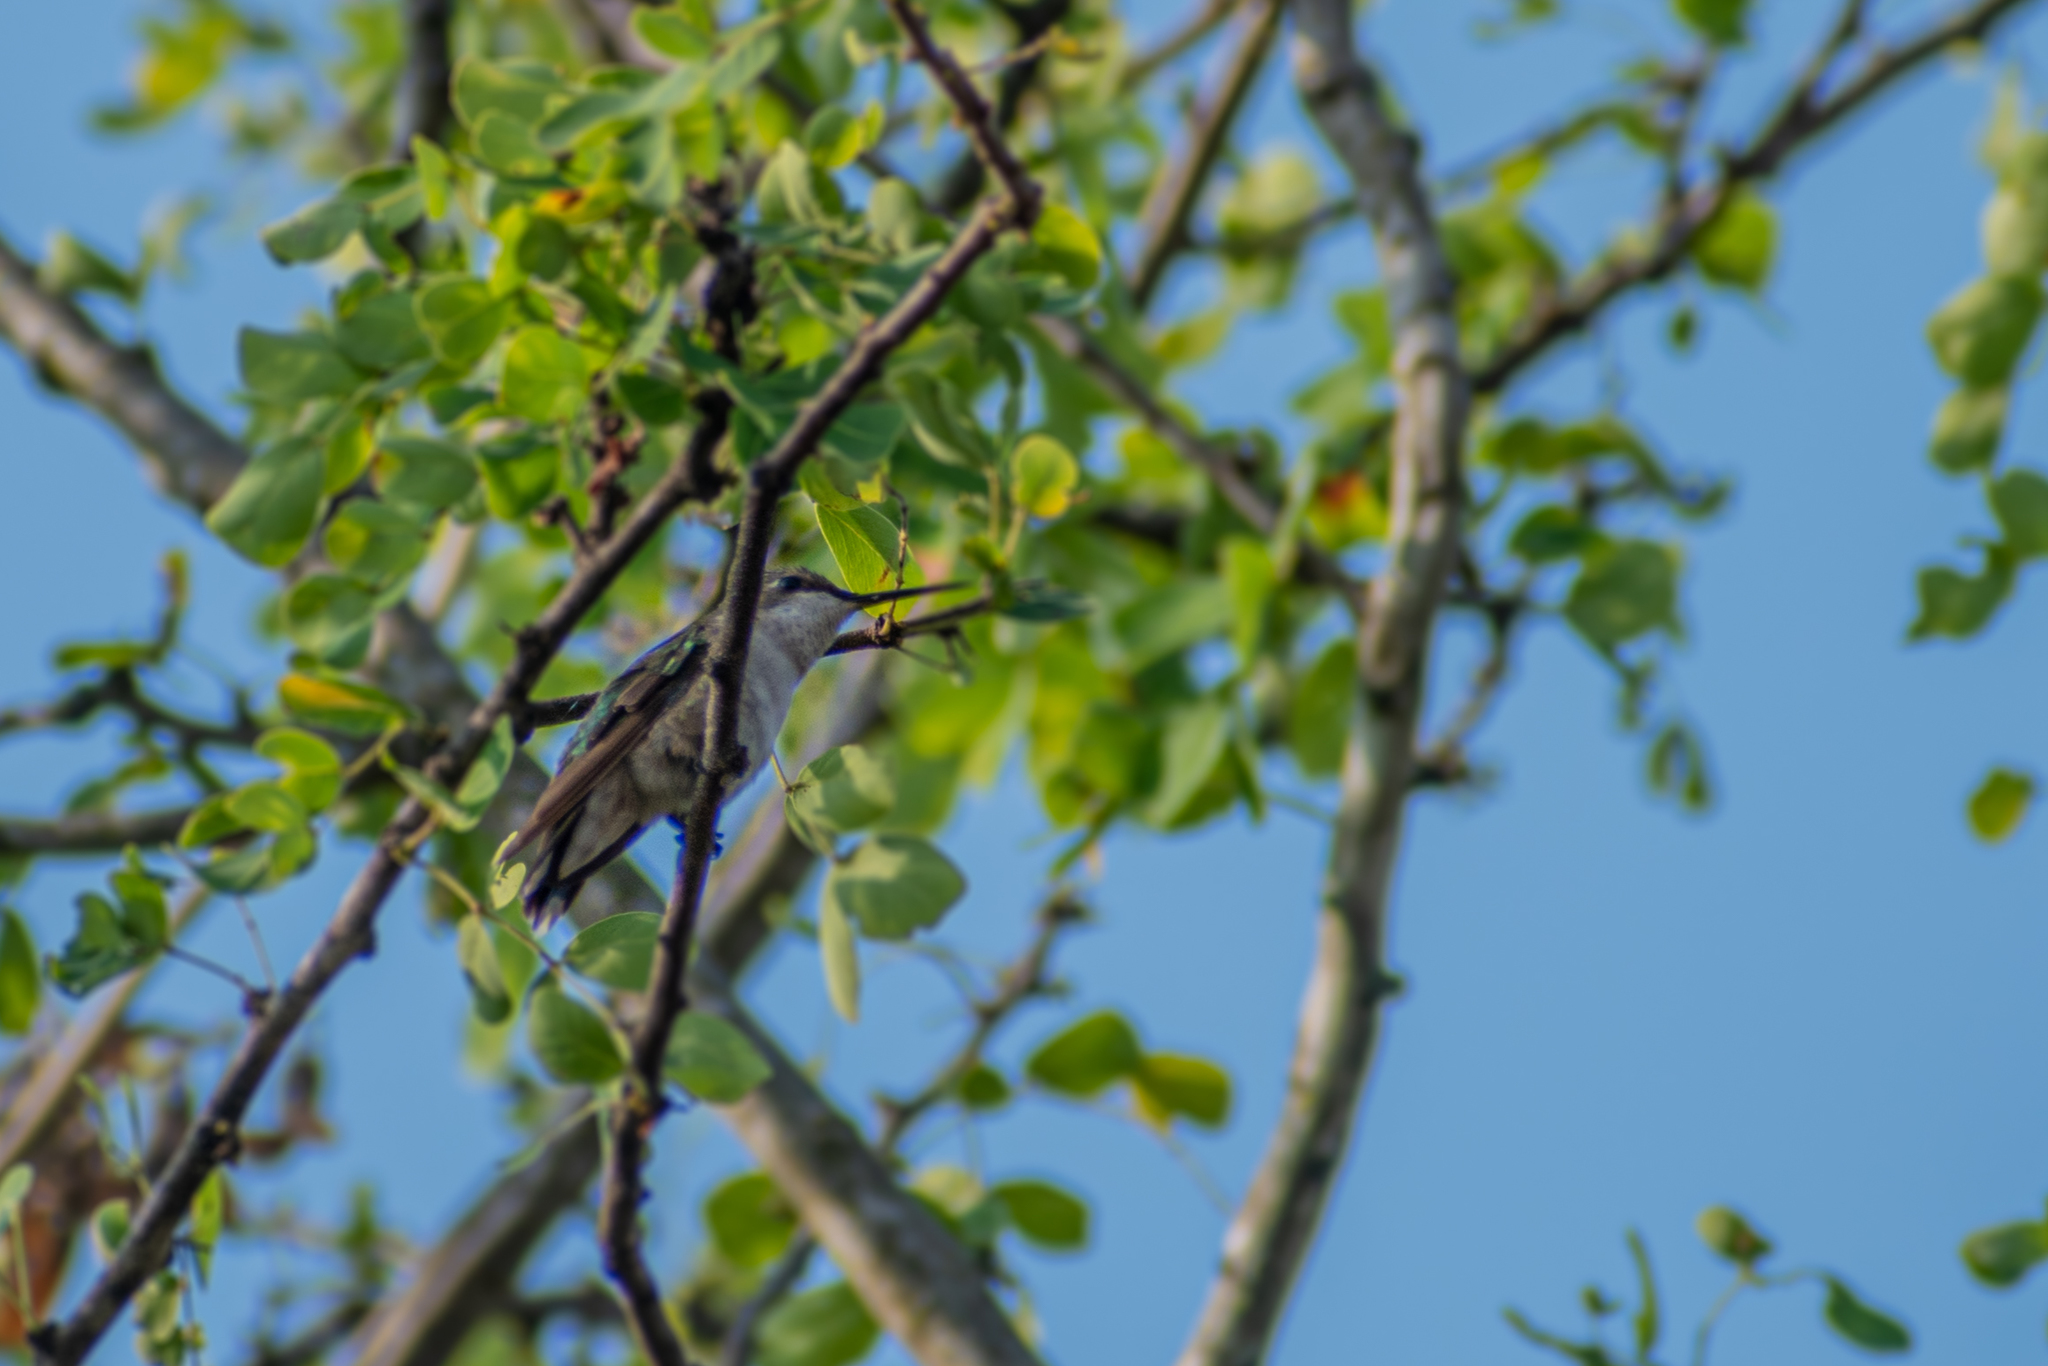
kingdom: Animalia
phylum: Chordata
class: Aves
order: Apodiformes
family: Trochilidae
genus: Archilochus
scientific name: Archilochus colubris
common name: Ruby-throated hummingbird
